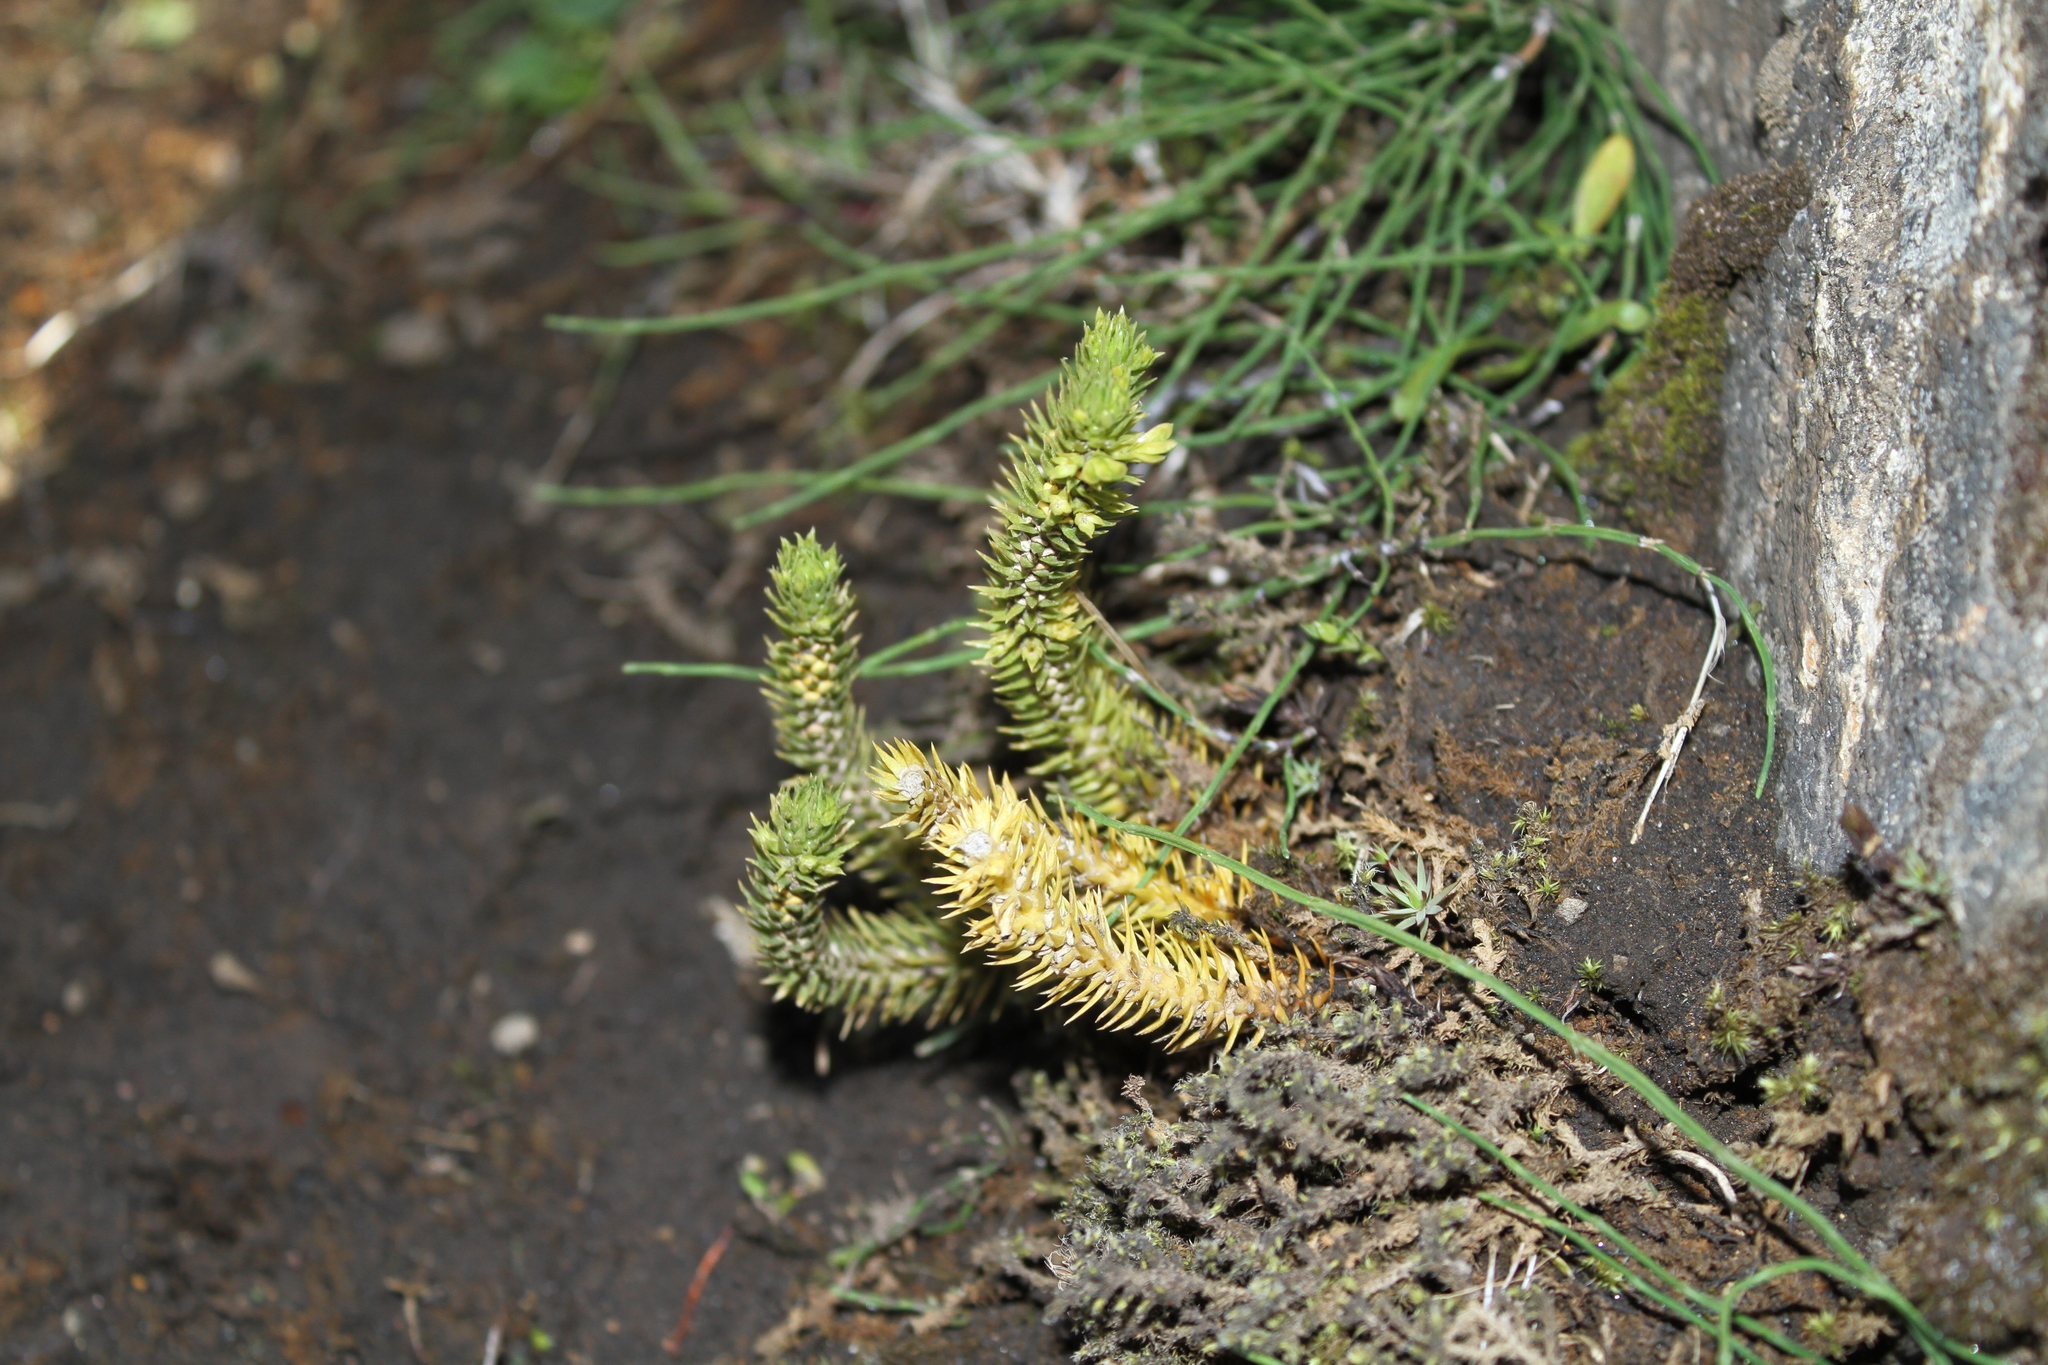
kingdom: Plantae
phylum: Tracheophyta
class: Lycopodiopsida
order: Lycopodiales
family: Lycopodiaceae
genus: Huperzia
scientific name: Huperzia selago
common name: Northern firmoss
